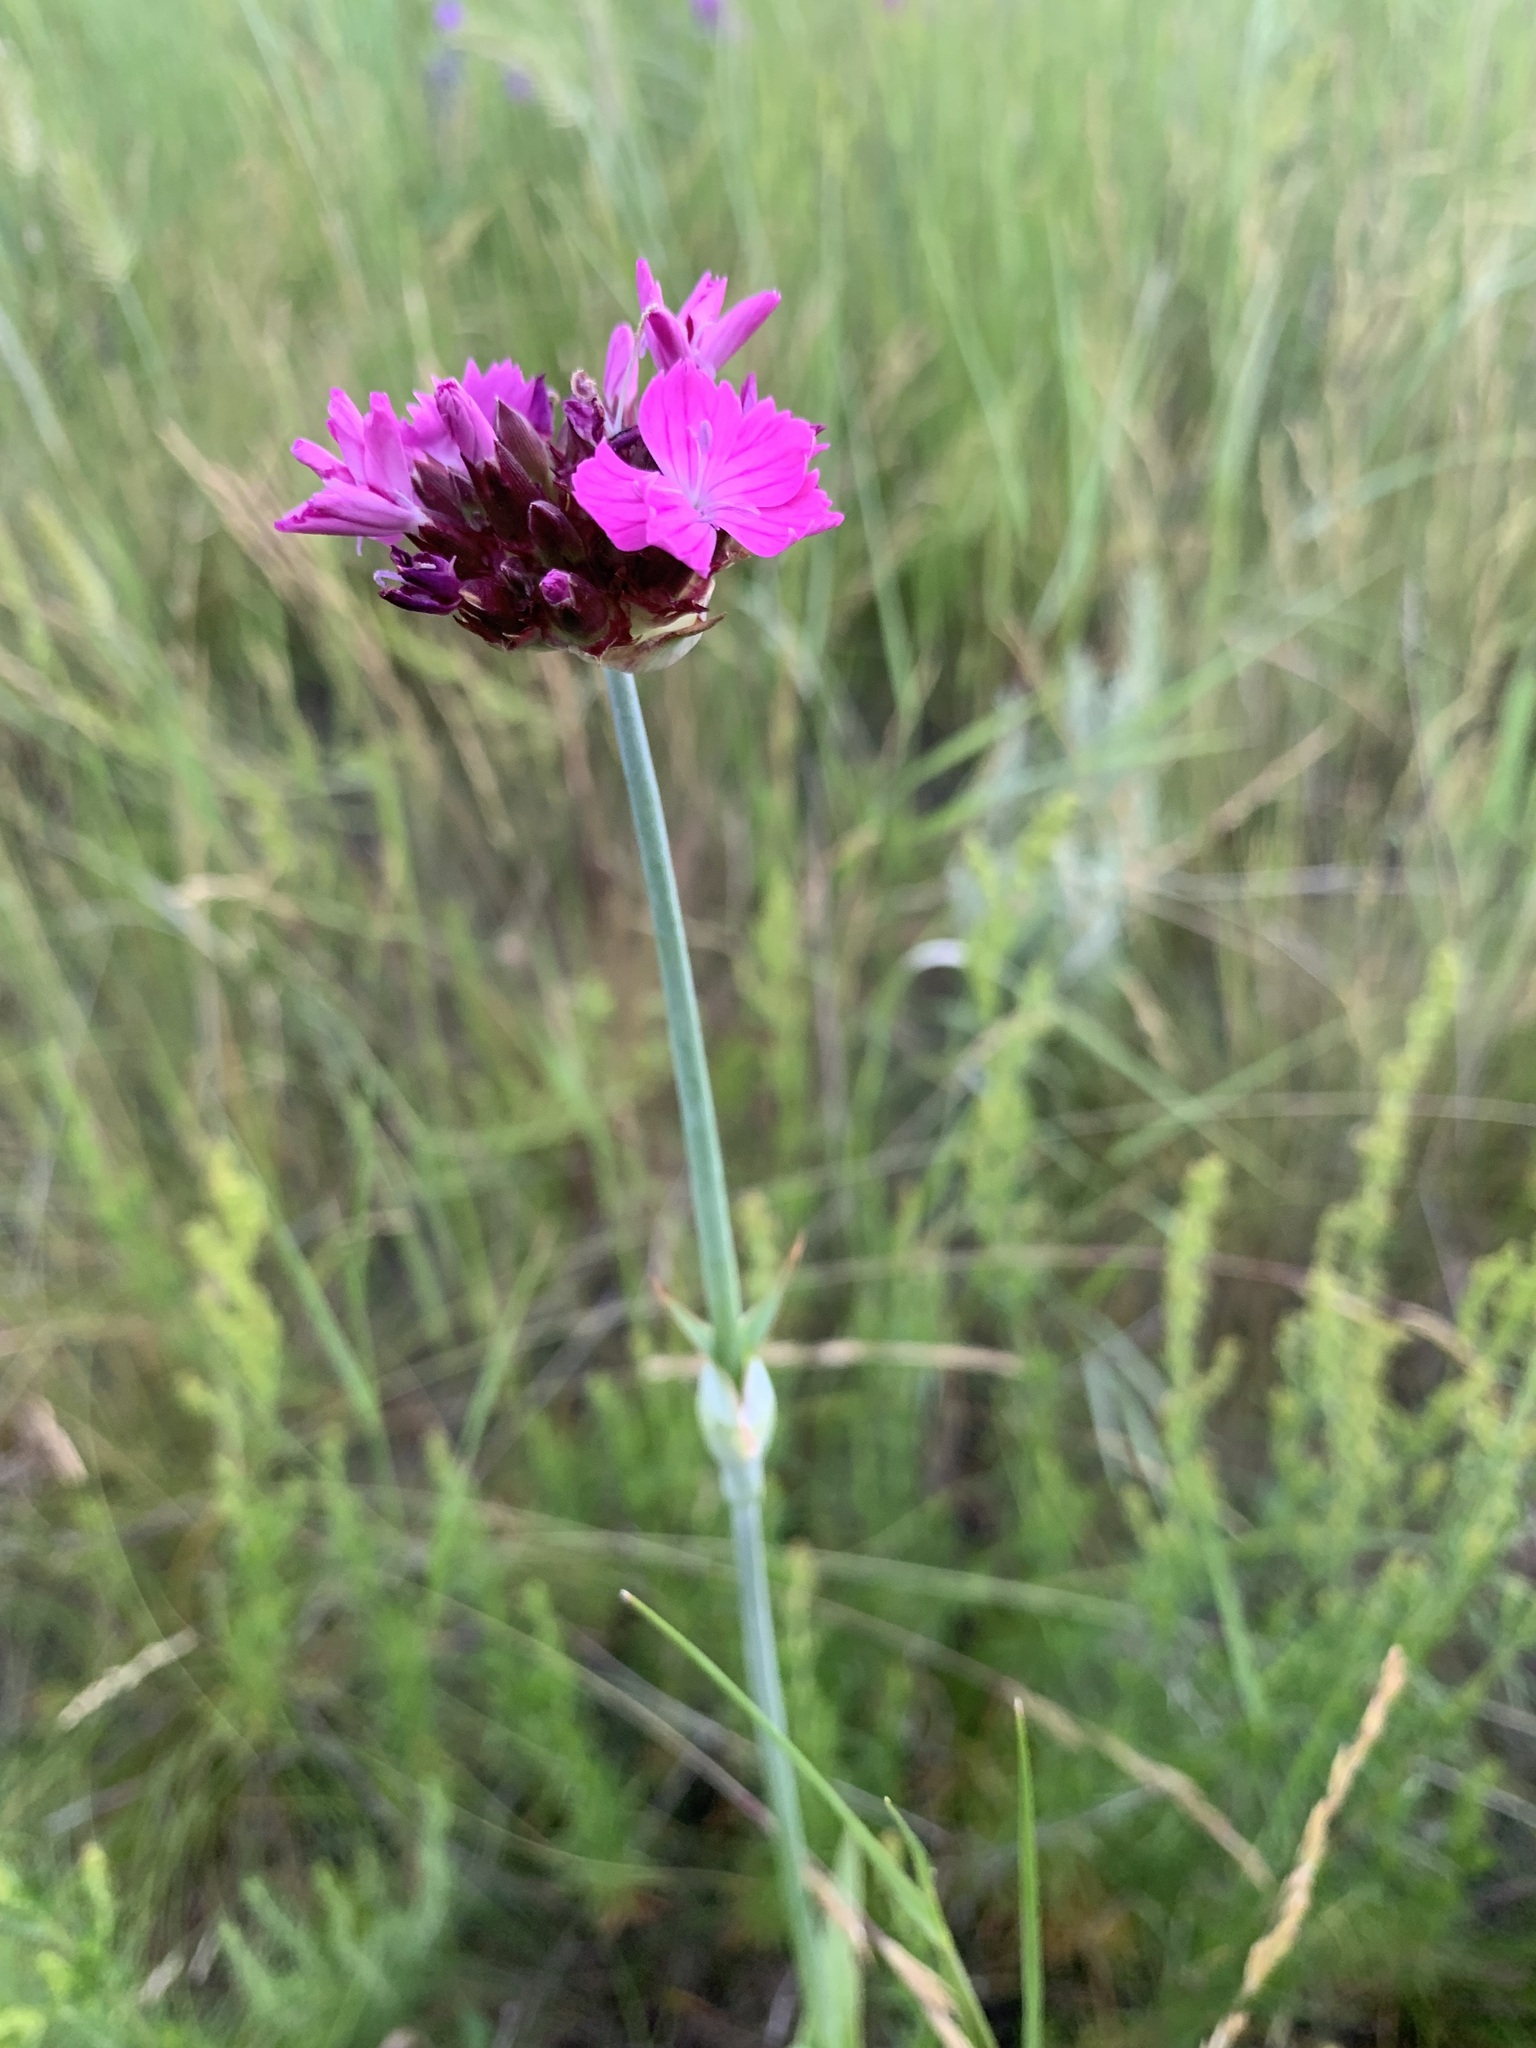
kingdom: Plantae
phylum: Tracheophyta
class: Magnoliopsida
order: Caryophyllales
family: Caryophyllaceae
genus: Dianthus
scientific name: Dianthus capitatus
